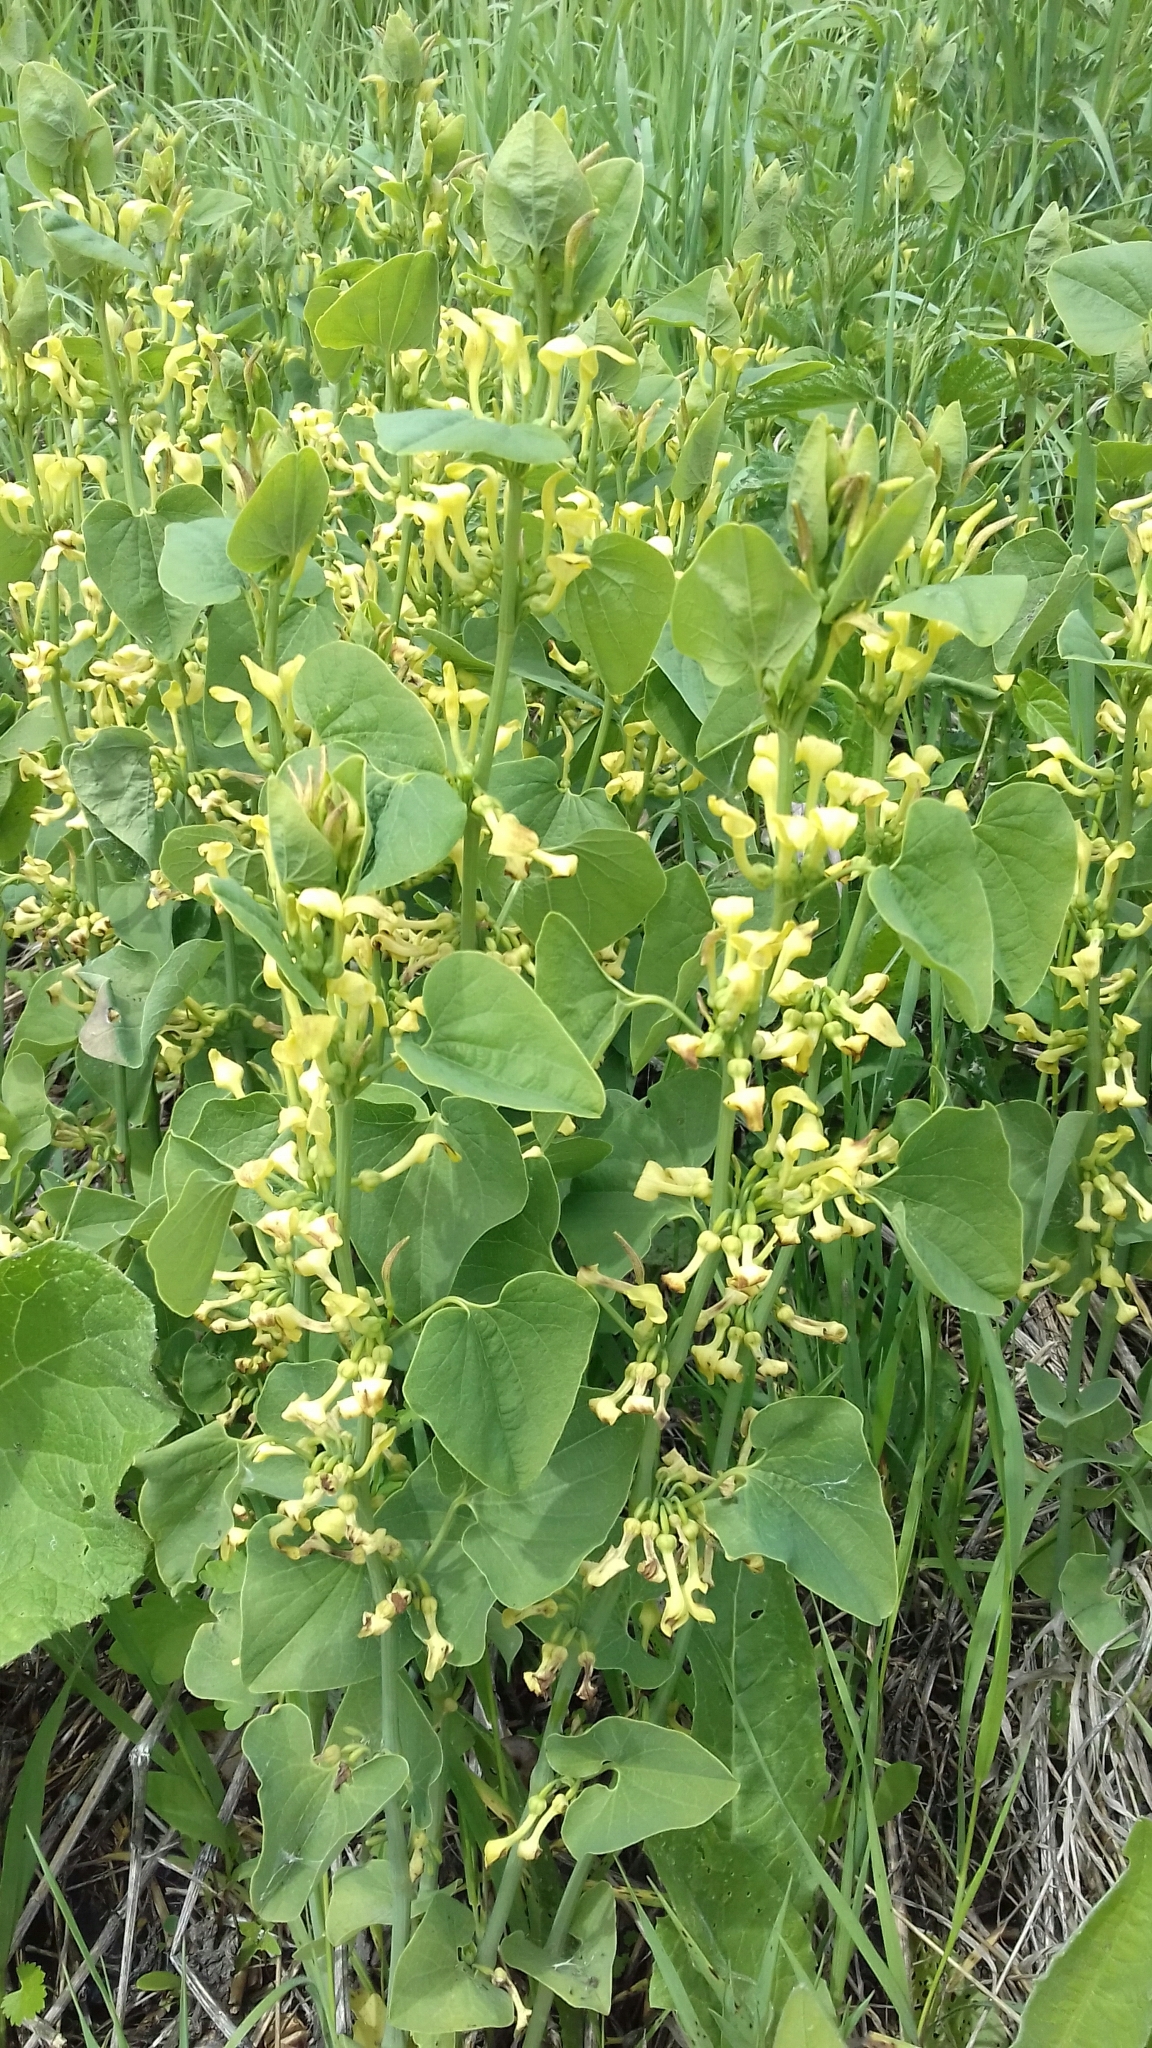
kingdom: Plantae
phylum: Tracheophyta
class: Magnoliopsida
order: Piperales
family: Aristolochiaceae
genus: Aristolochia
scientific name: Aristolochia clematitis
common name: Birthwort
